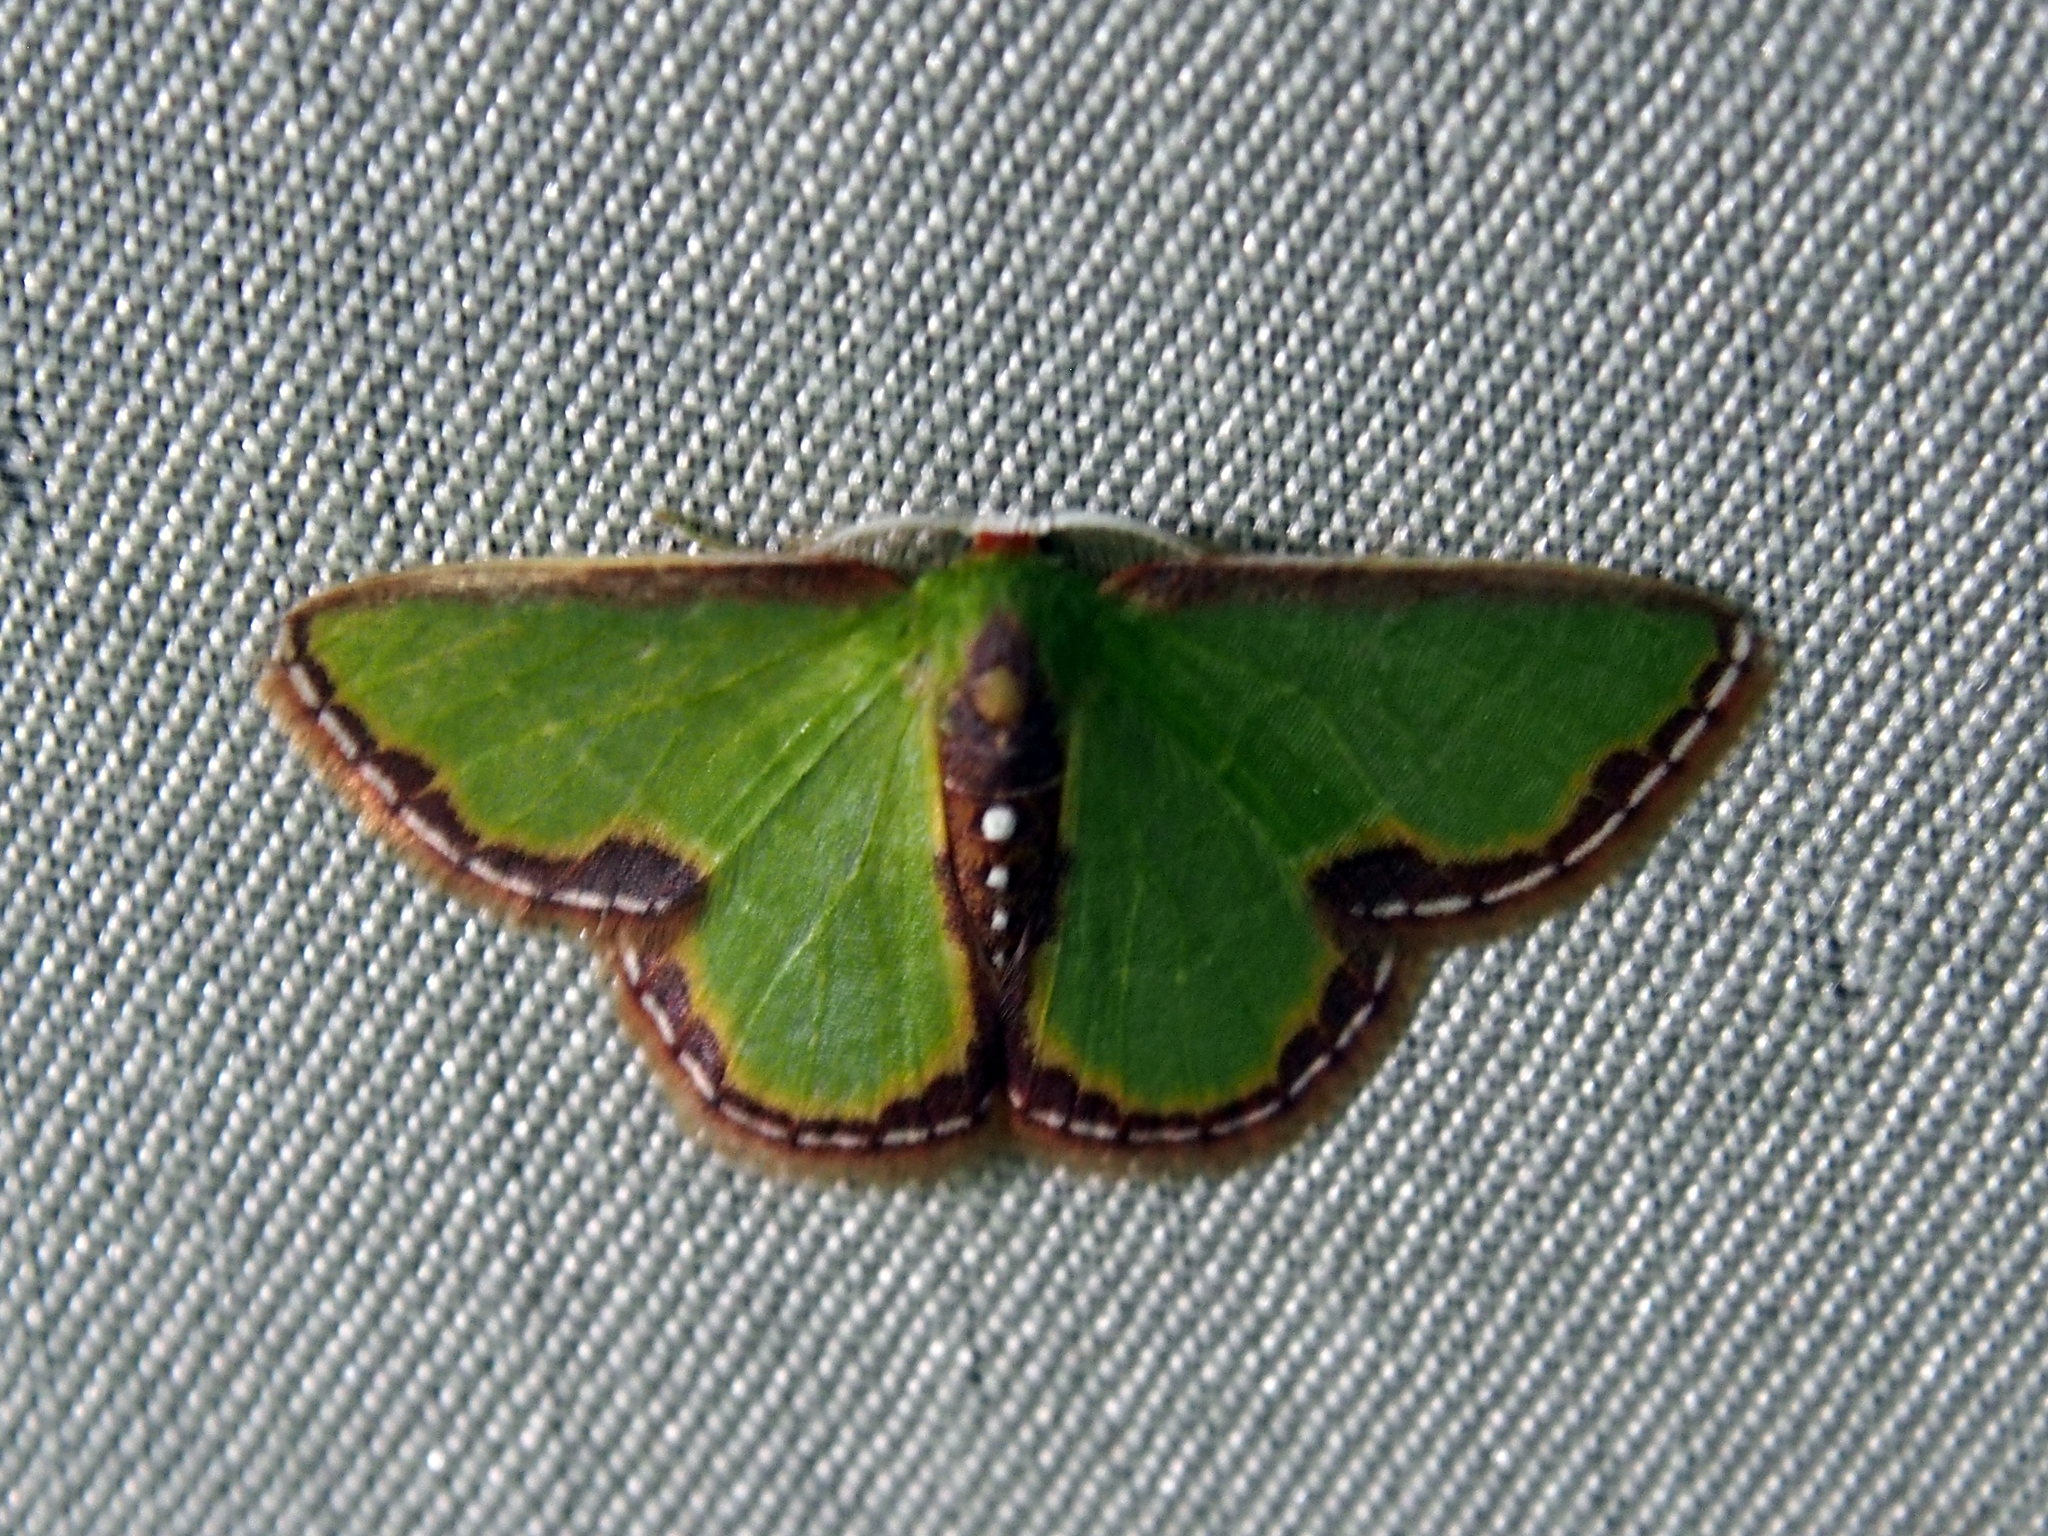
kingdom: Animalia
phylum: Arthropoda
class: Insecta
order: Lepidoptera
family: Geometridae
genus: Synchlora
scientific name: Synchlora expulsata
